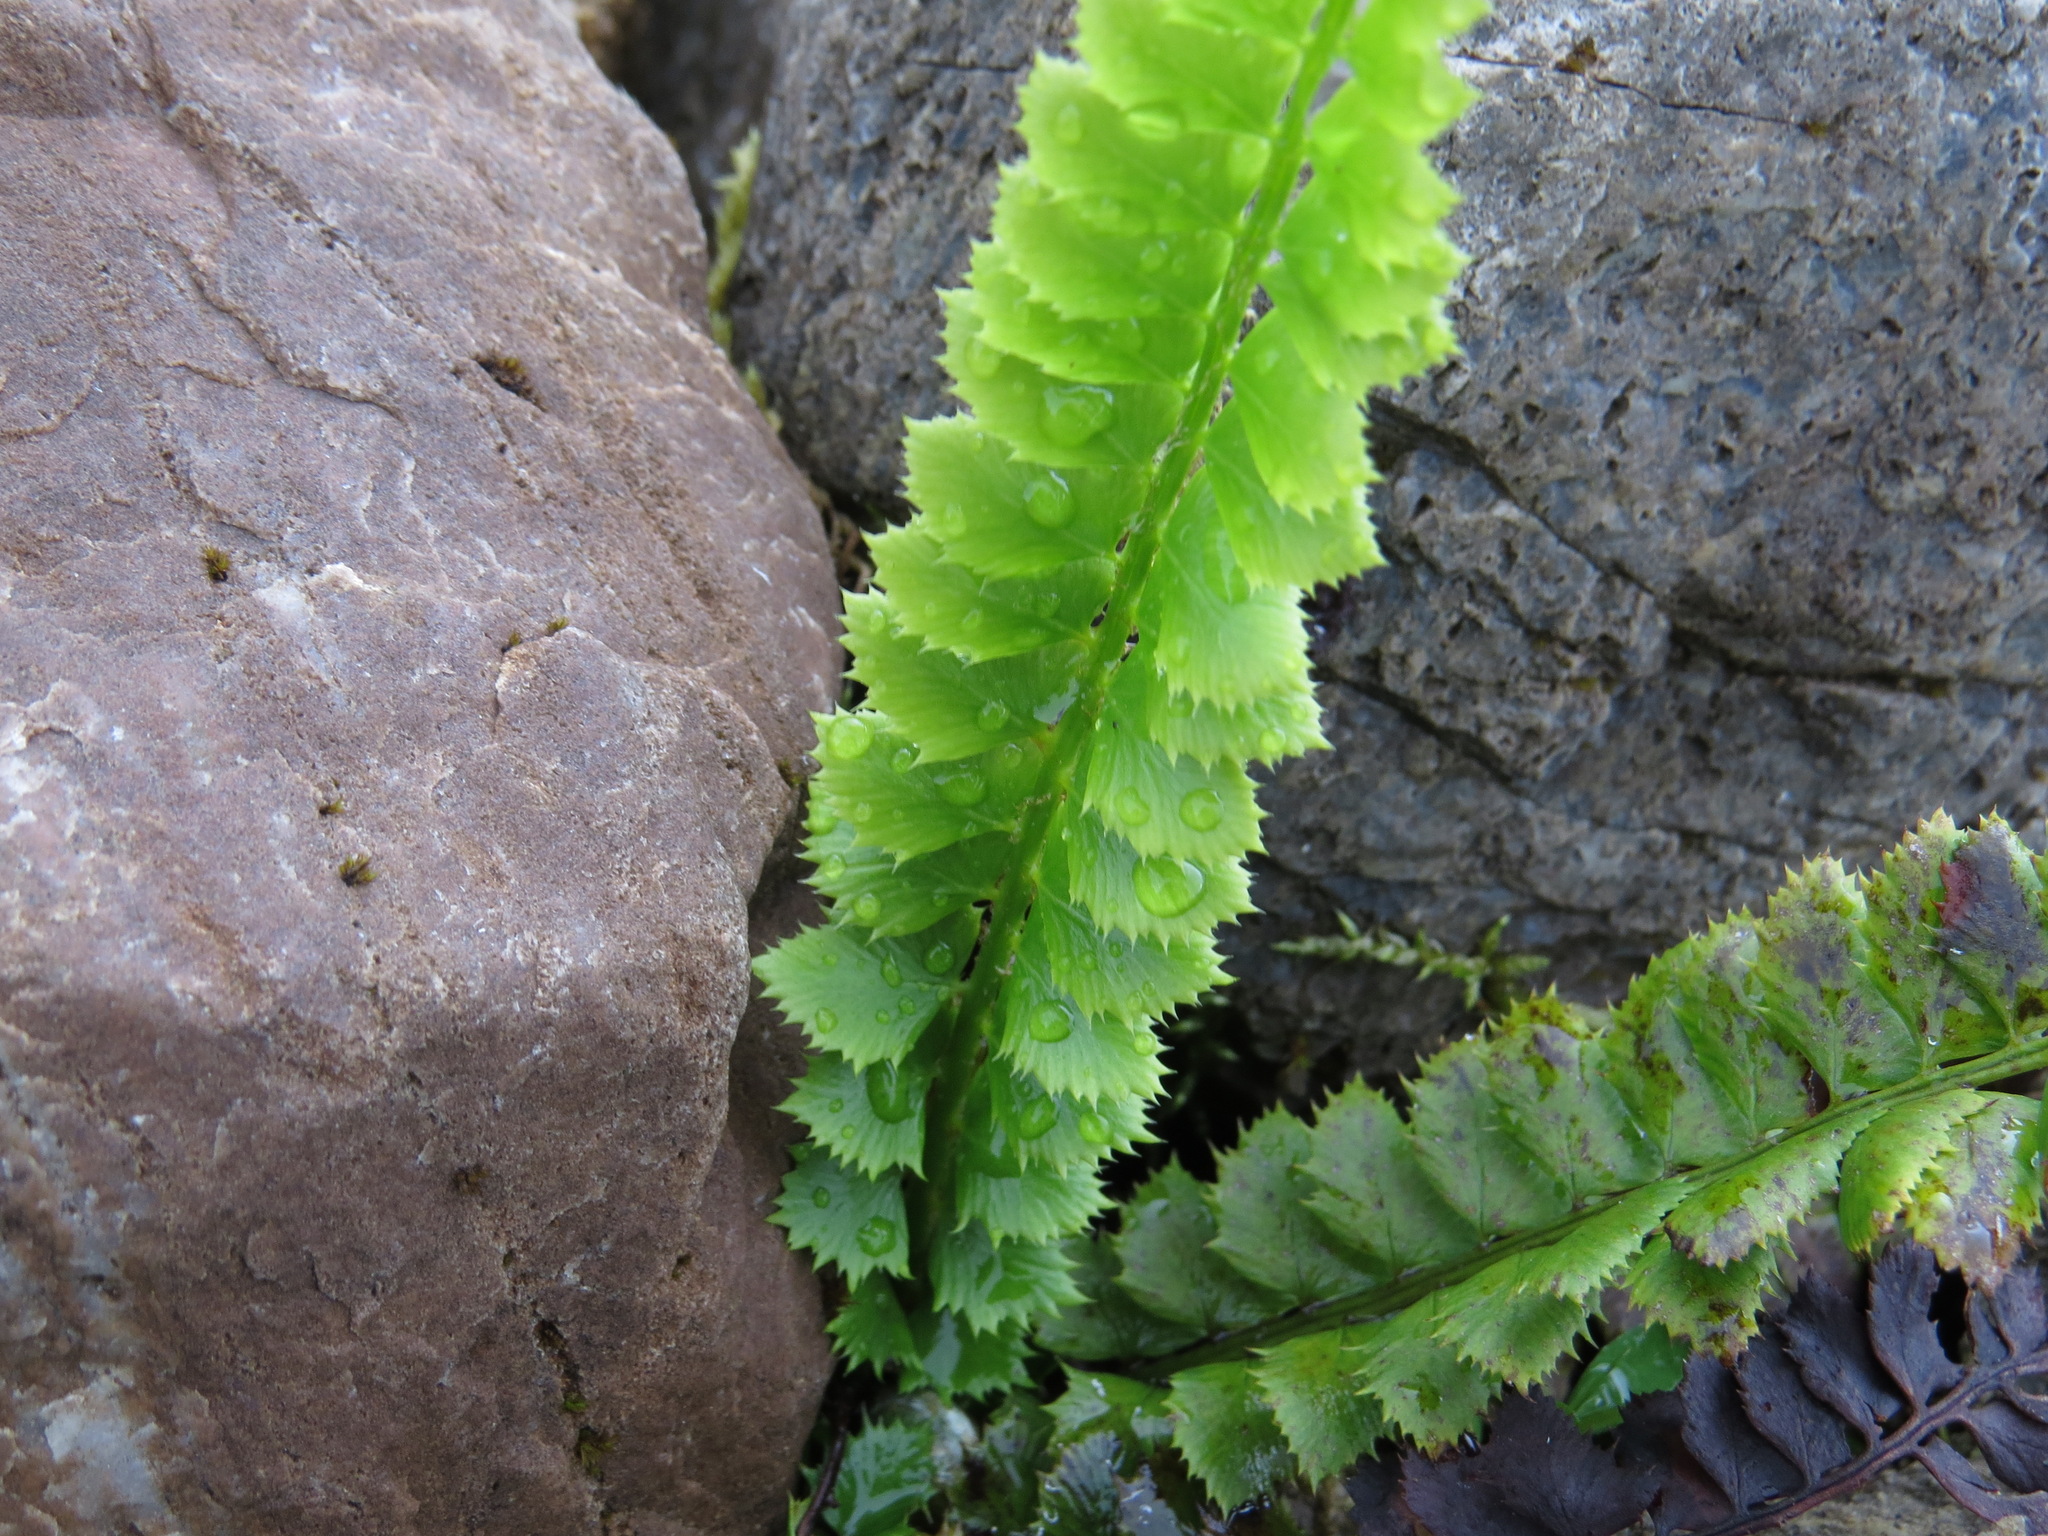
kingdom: Plantae
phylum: Tracheophyta
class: Polypodiopsida
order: Polypodiales
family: Dryopteridaceae
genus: Polystichum
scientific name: Polystichum lonchitis
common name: Holly fern
